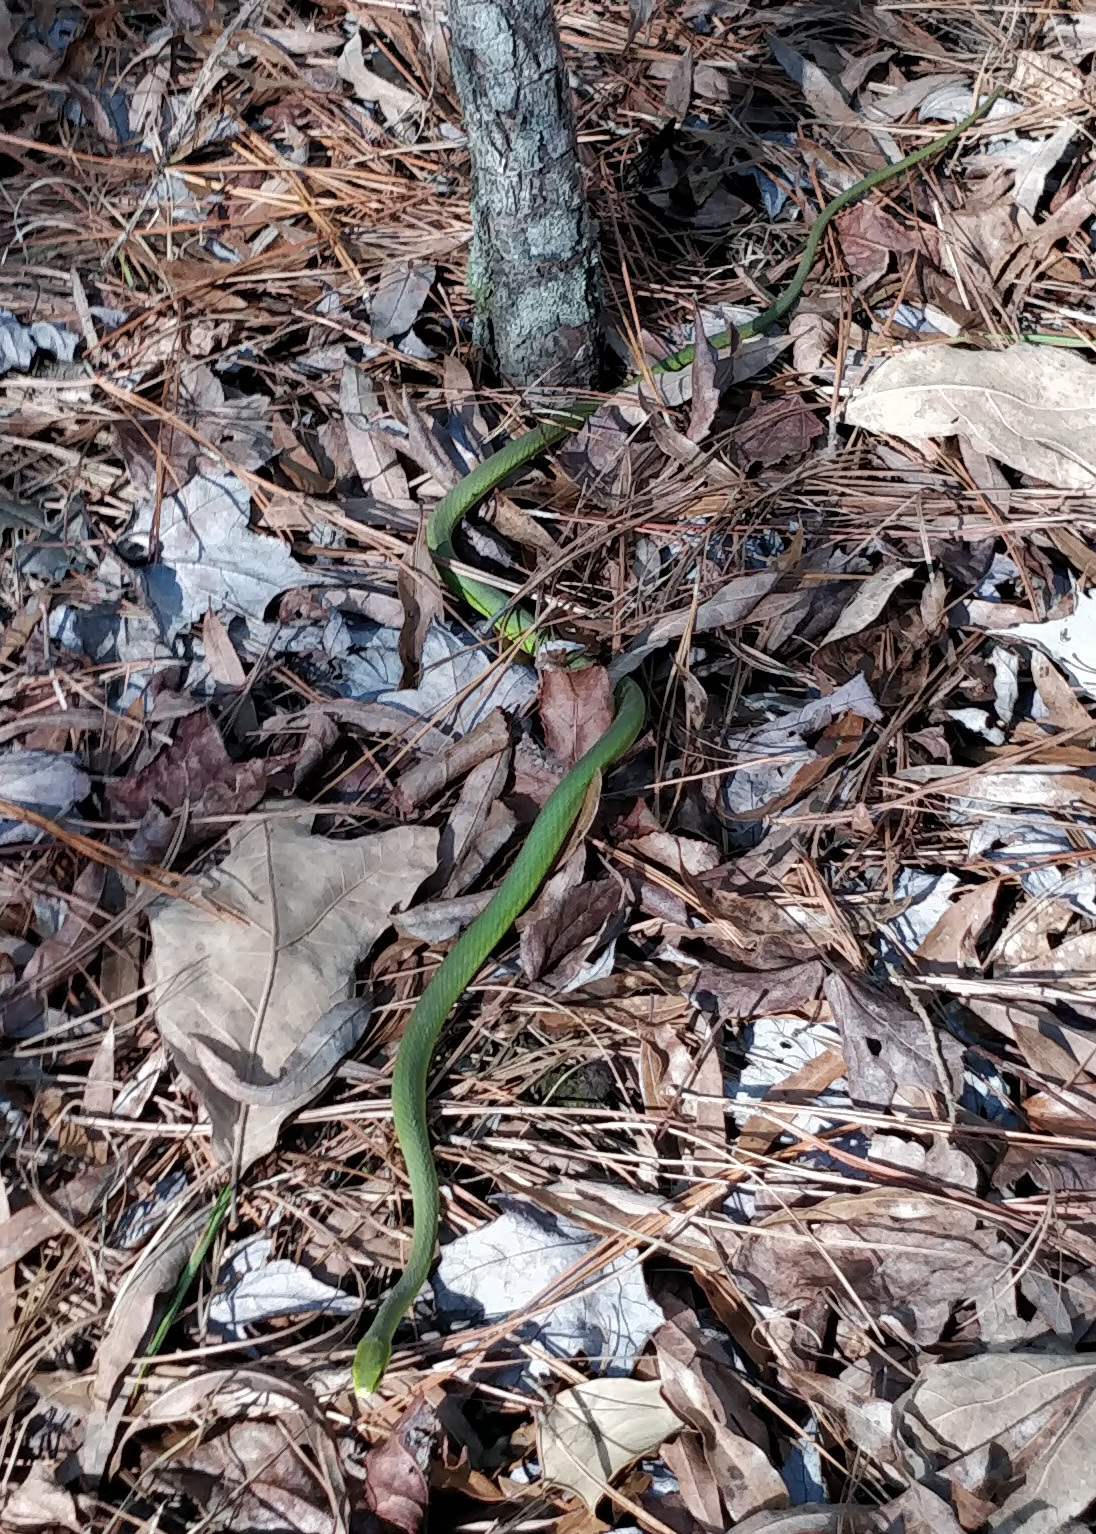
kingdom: Animalia
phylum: Chordata
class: Squamata
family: Colubridae
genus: Opheodrys
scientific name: Opheodrys aestivus
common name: Rough greensnake
